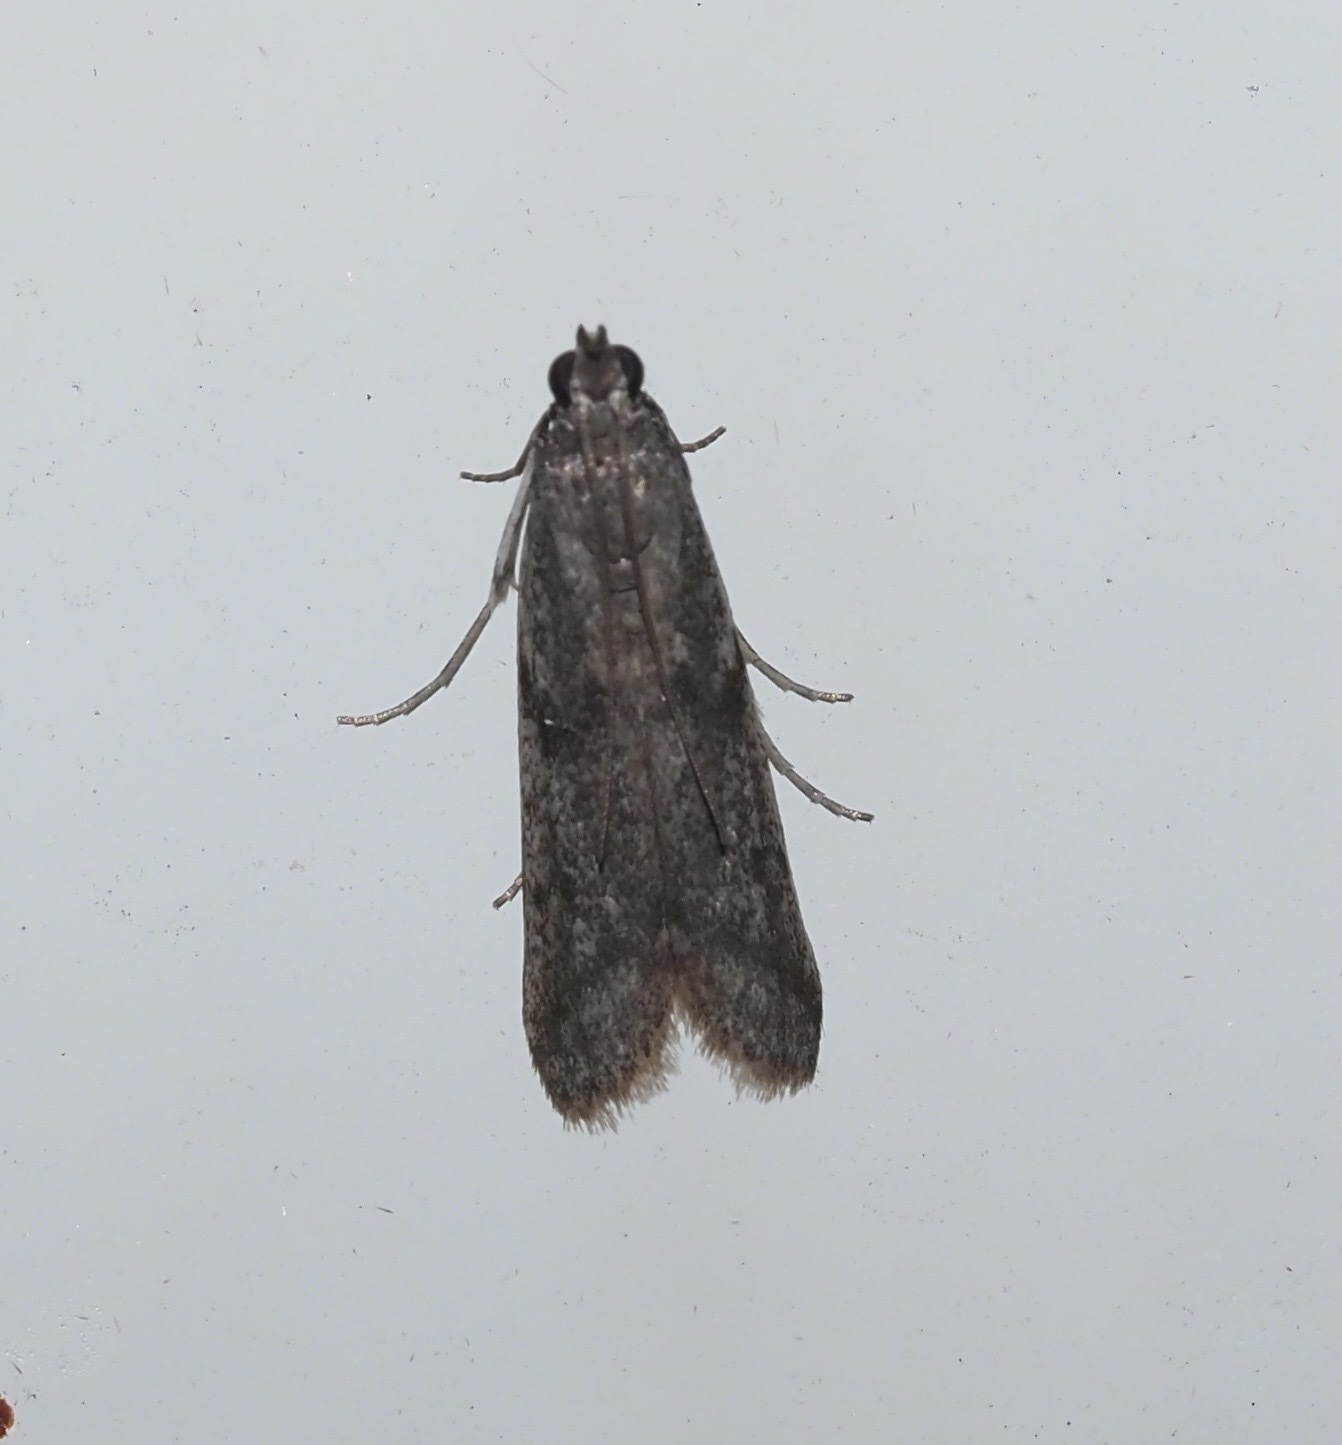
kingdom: Animalia
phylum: Arthropoda
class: Insecta
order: Lepidoptera
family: Pyralidae
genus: Phycitodes
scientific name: Phycitodes mucidellus
